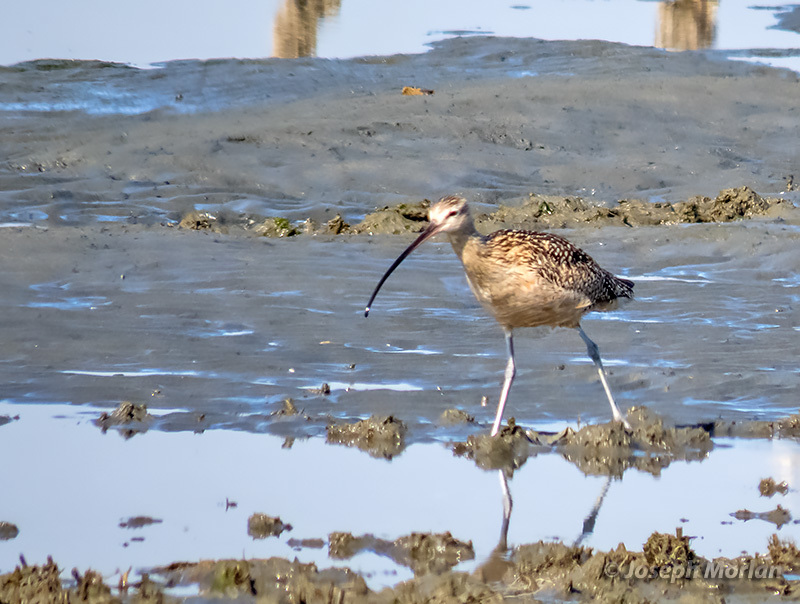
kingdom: Animalia
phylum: Chordata
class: Aves
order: Charadriiformes
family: Scolopacidae
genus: Numenius
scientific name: Numenius americanus
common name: Long-billed curlew
